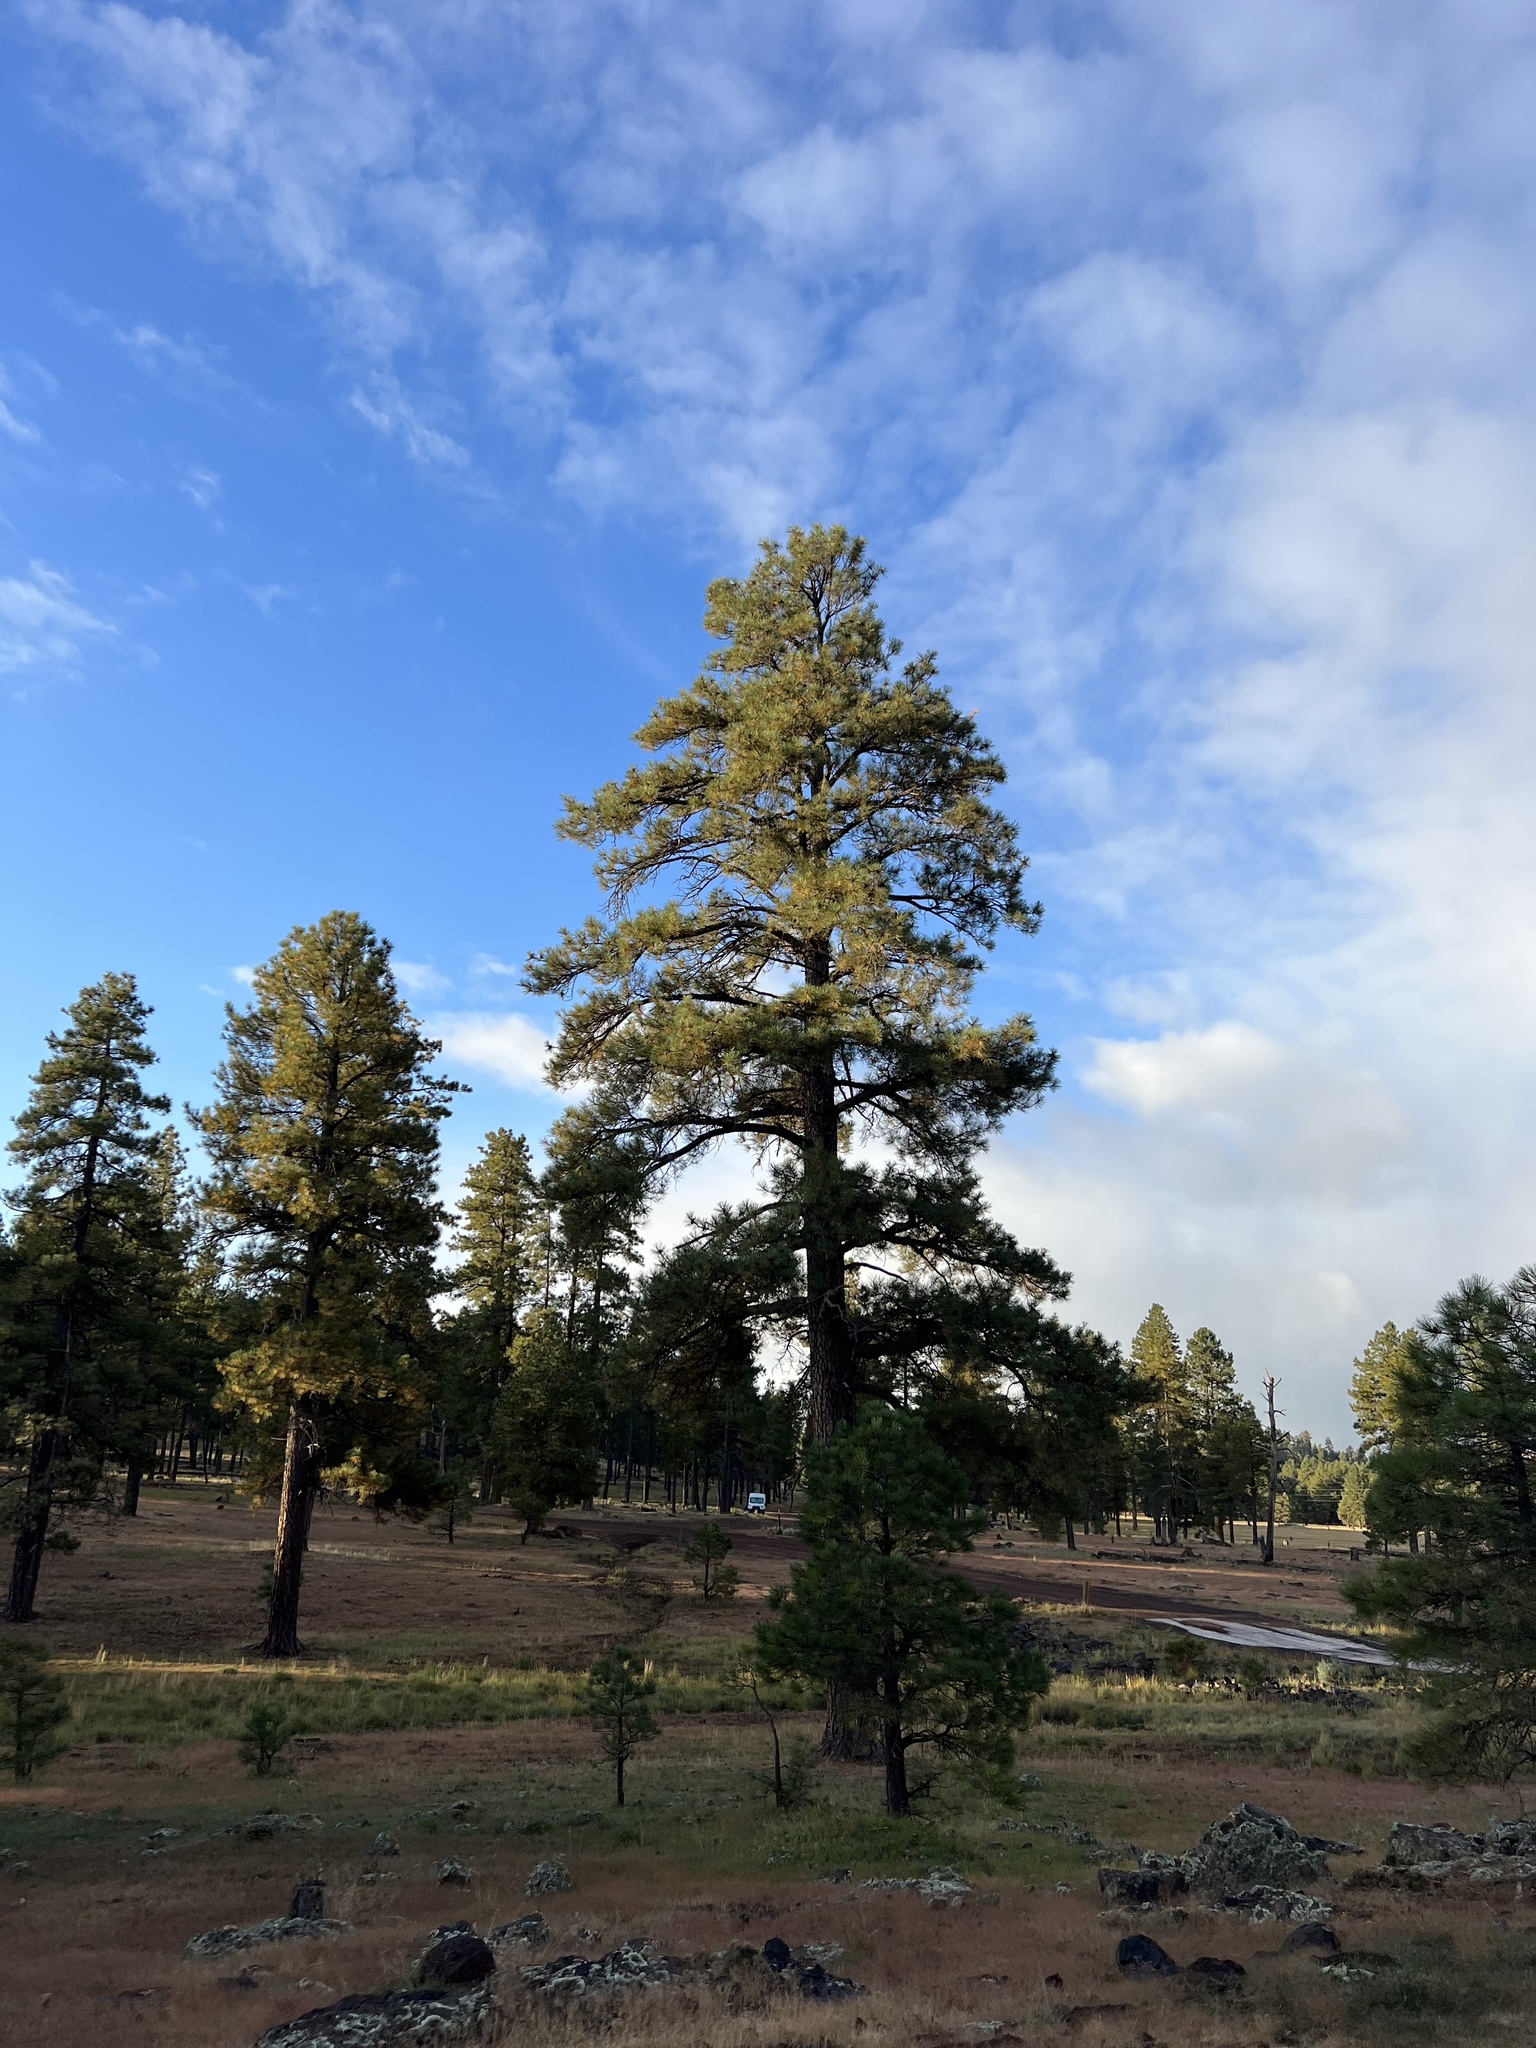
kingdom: Plantae
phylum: Tracheophyta
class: Pinopsida
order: Pinales
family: Pinaceae
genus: Pinus
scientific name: Pinus ponderosa
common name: Western yellow-pine
